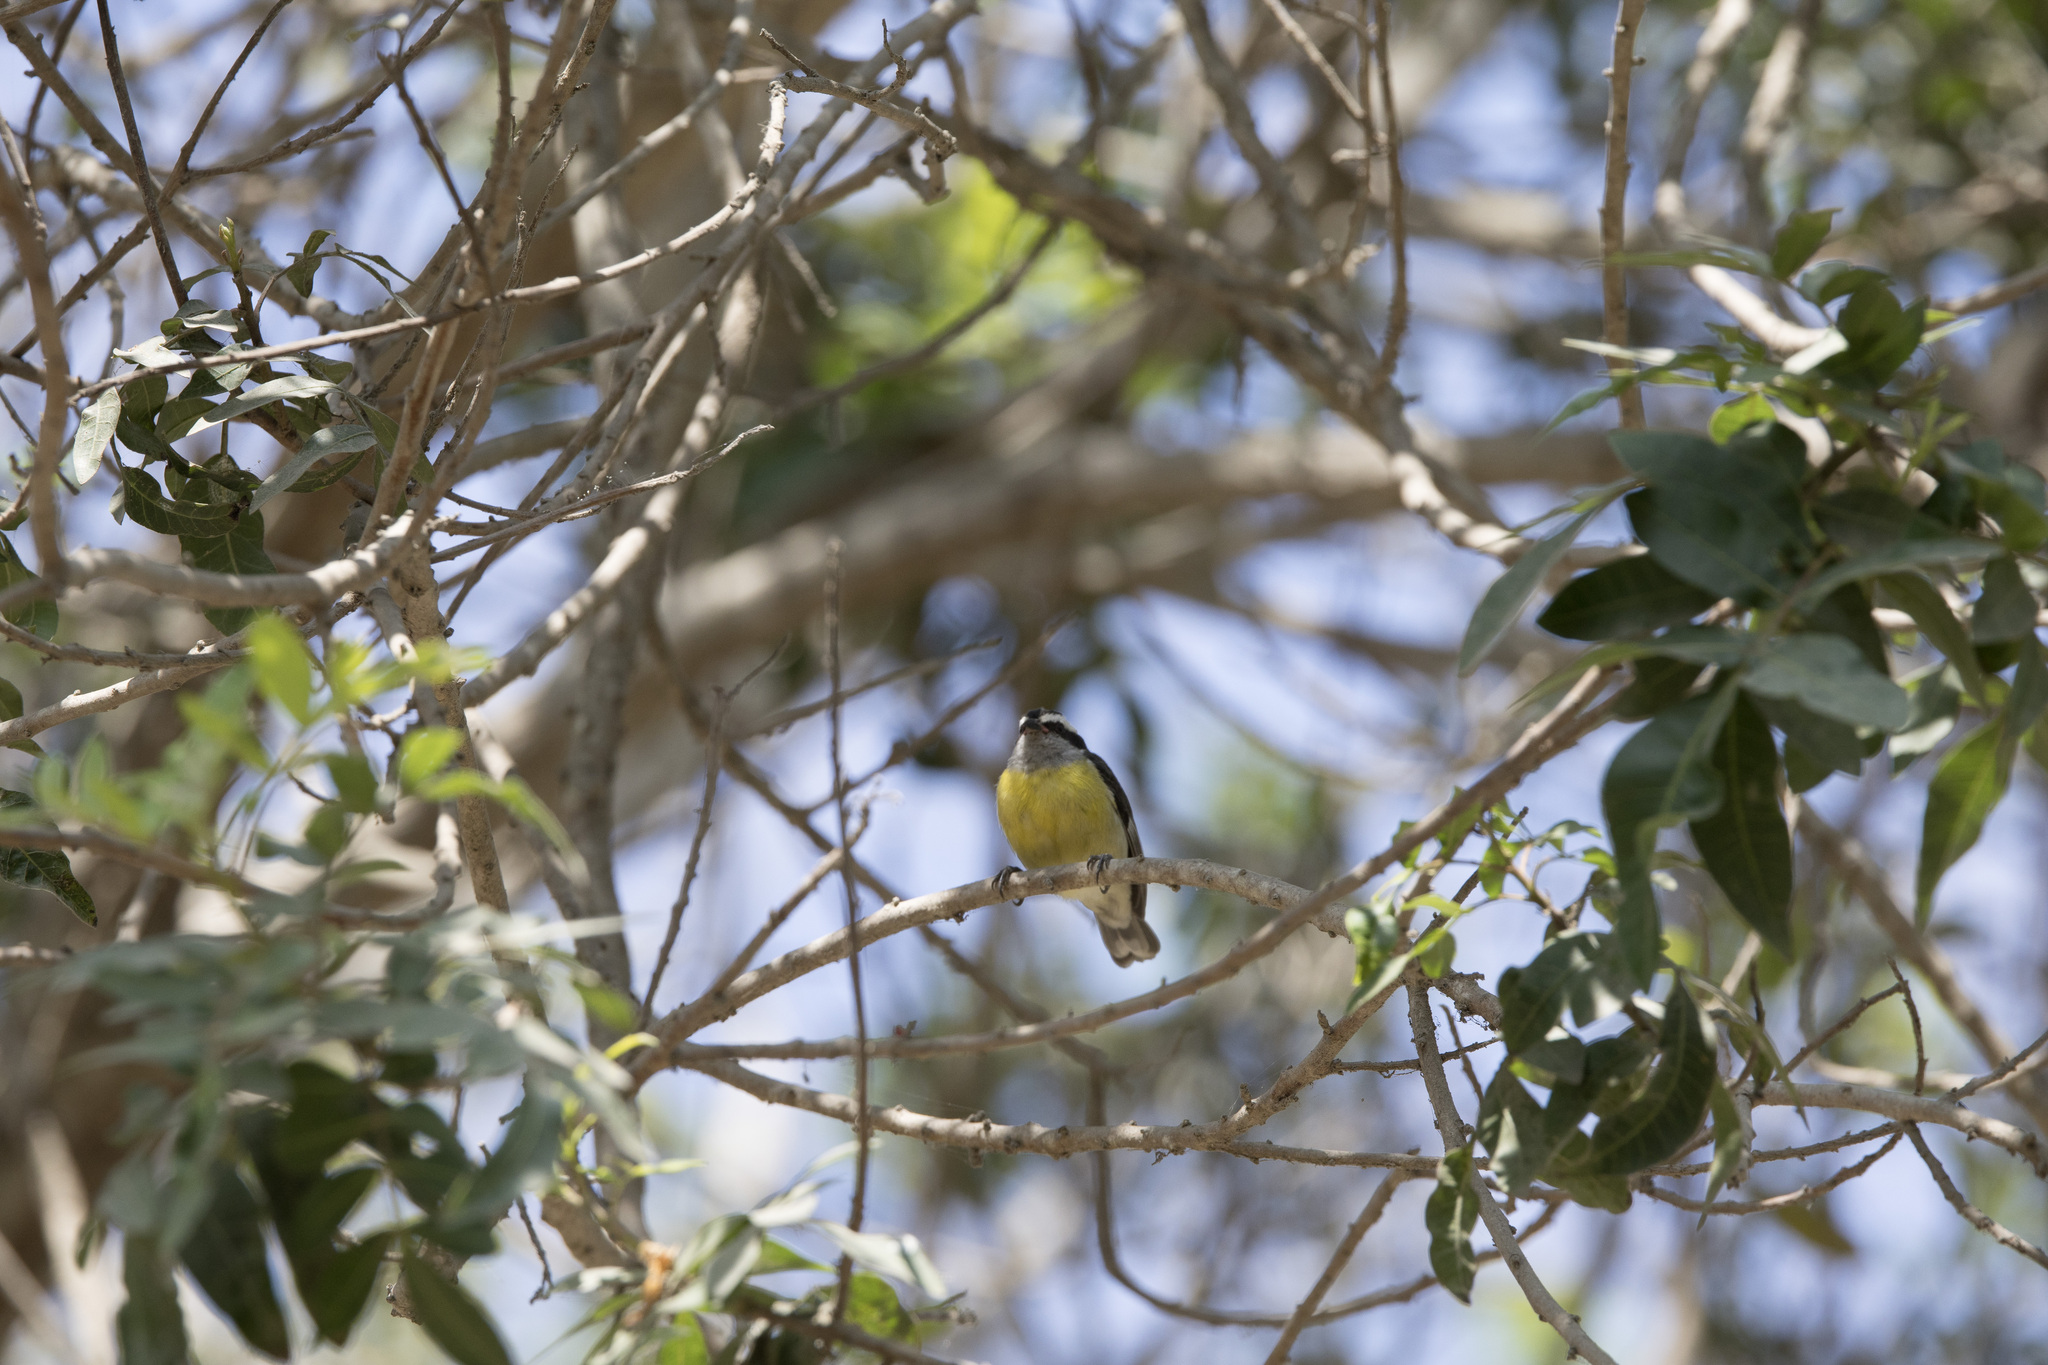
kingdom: Animalia
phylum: Chordata
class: Aves
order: Passeriformes
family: Thraupidae
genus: Coereba
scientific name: Coereba flaveola
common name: Bananaquit
